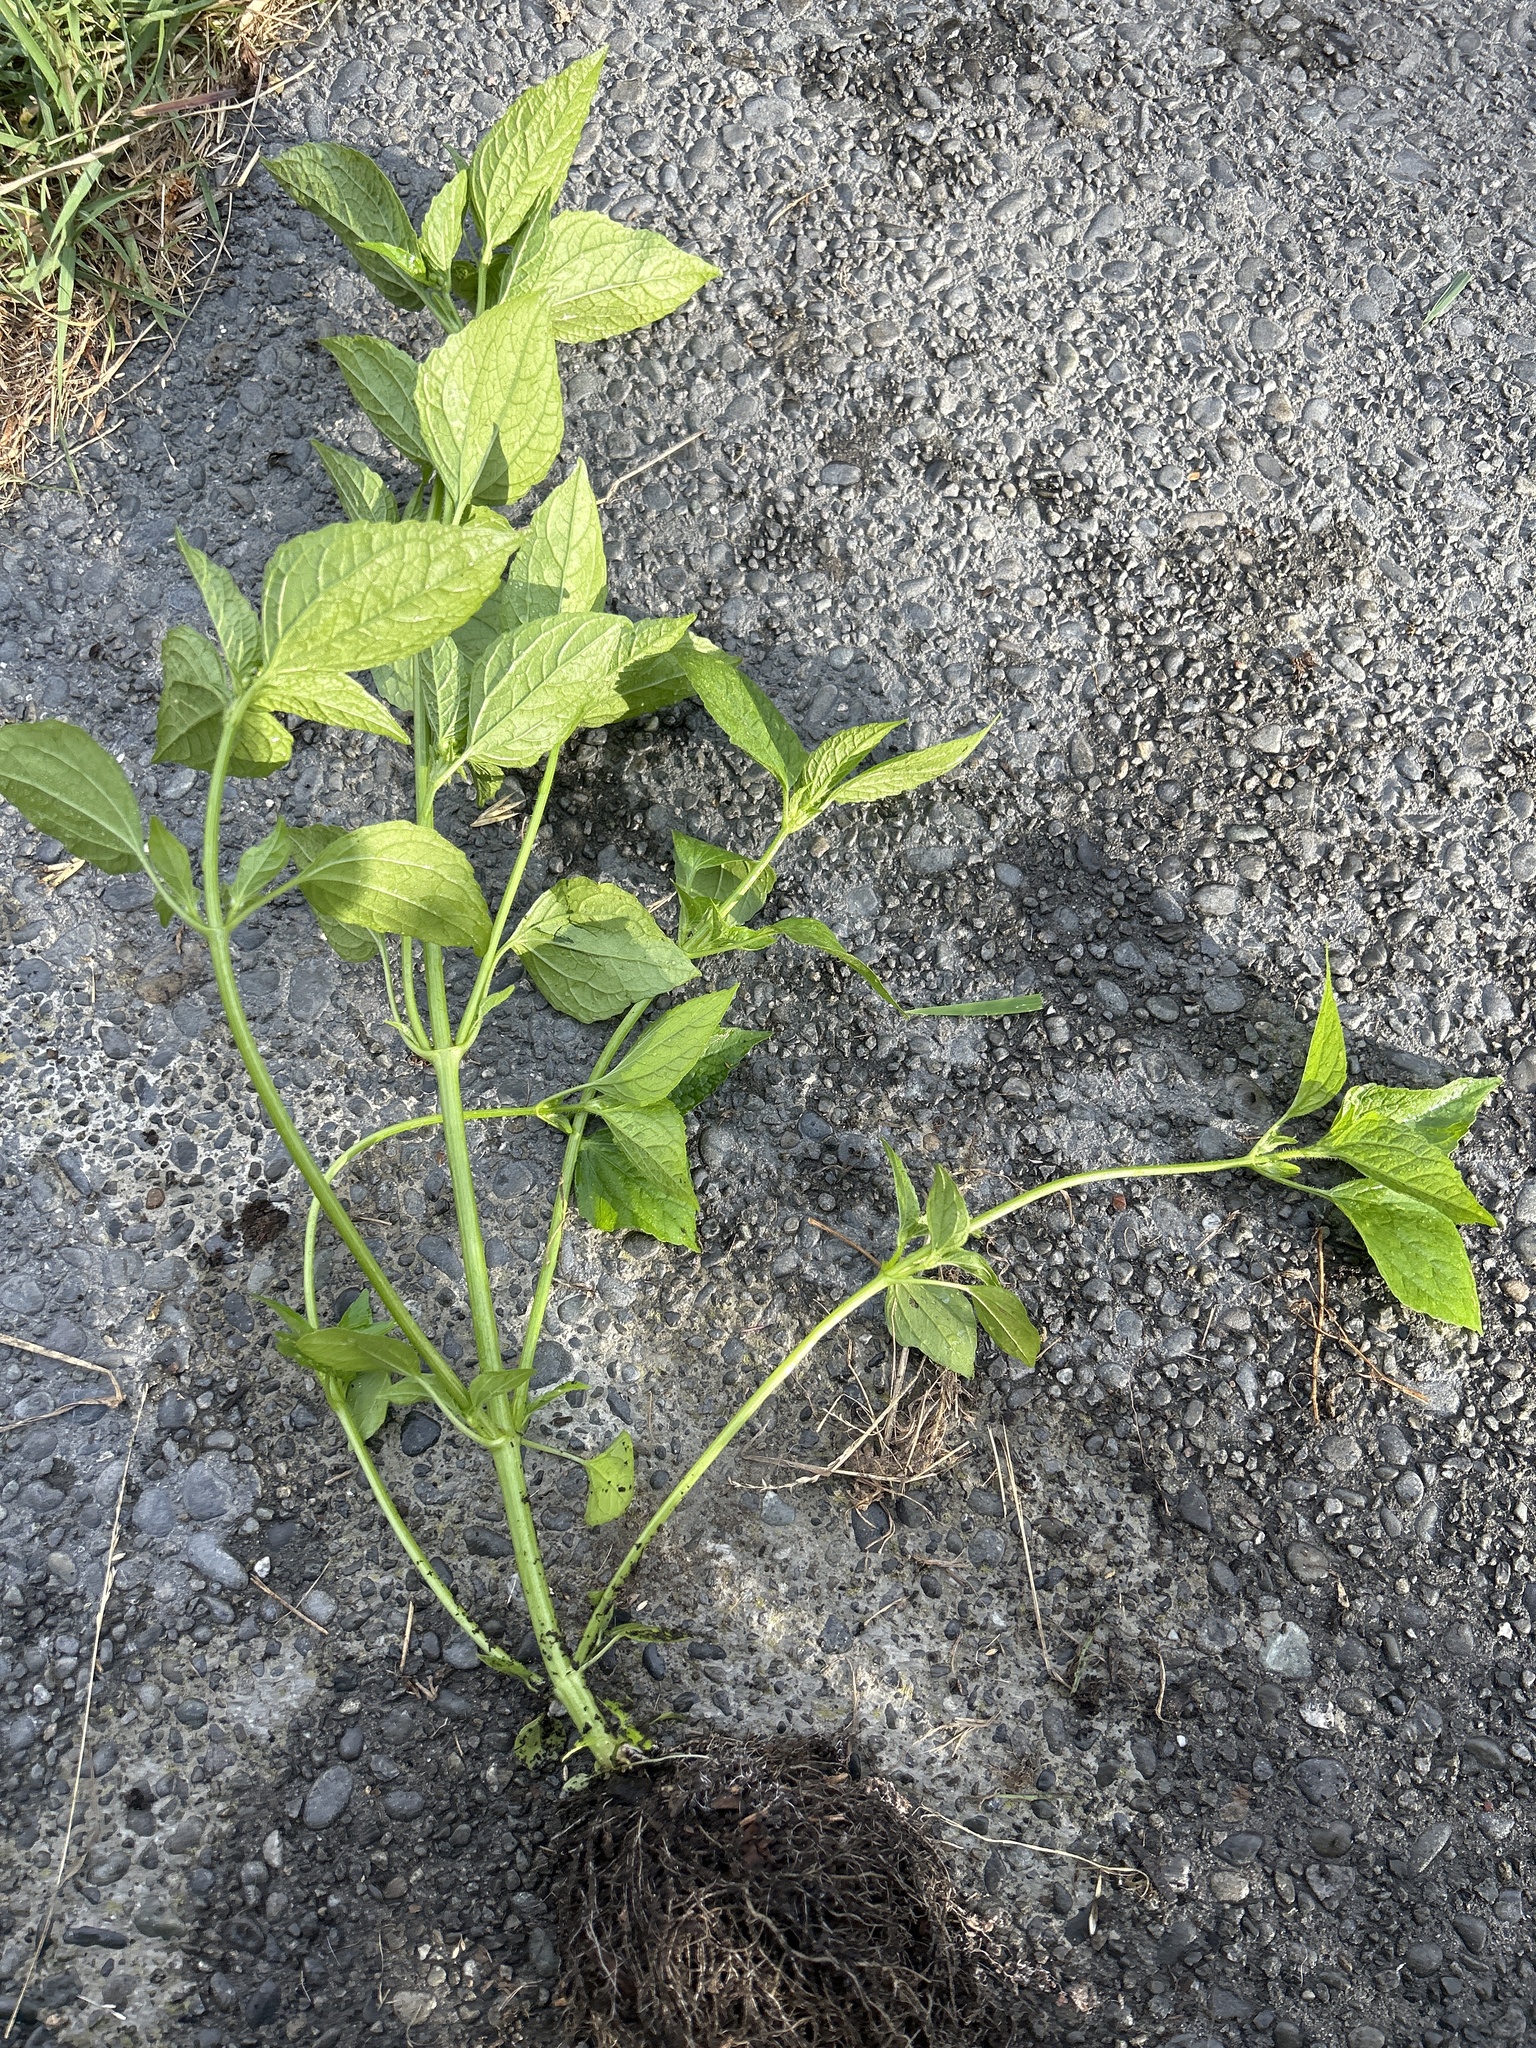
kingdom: Plantae
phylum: Tracheophyta
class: Magnoliopsida
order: Asterales
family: Asteraceae
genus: Galinsoga
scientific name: Galinsoga parviflora
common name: Gallant soldier
